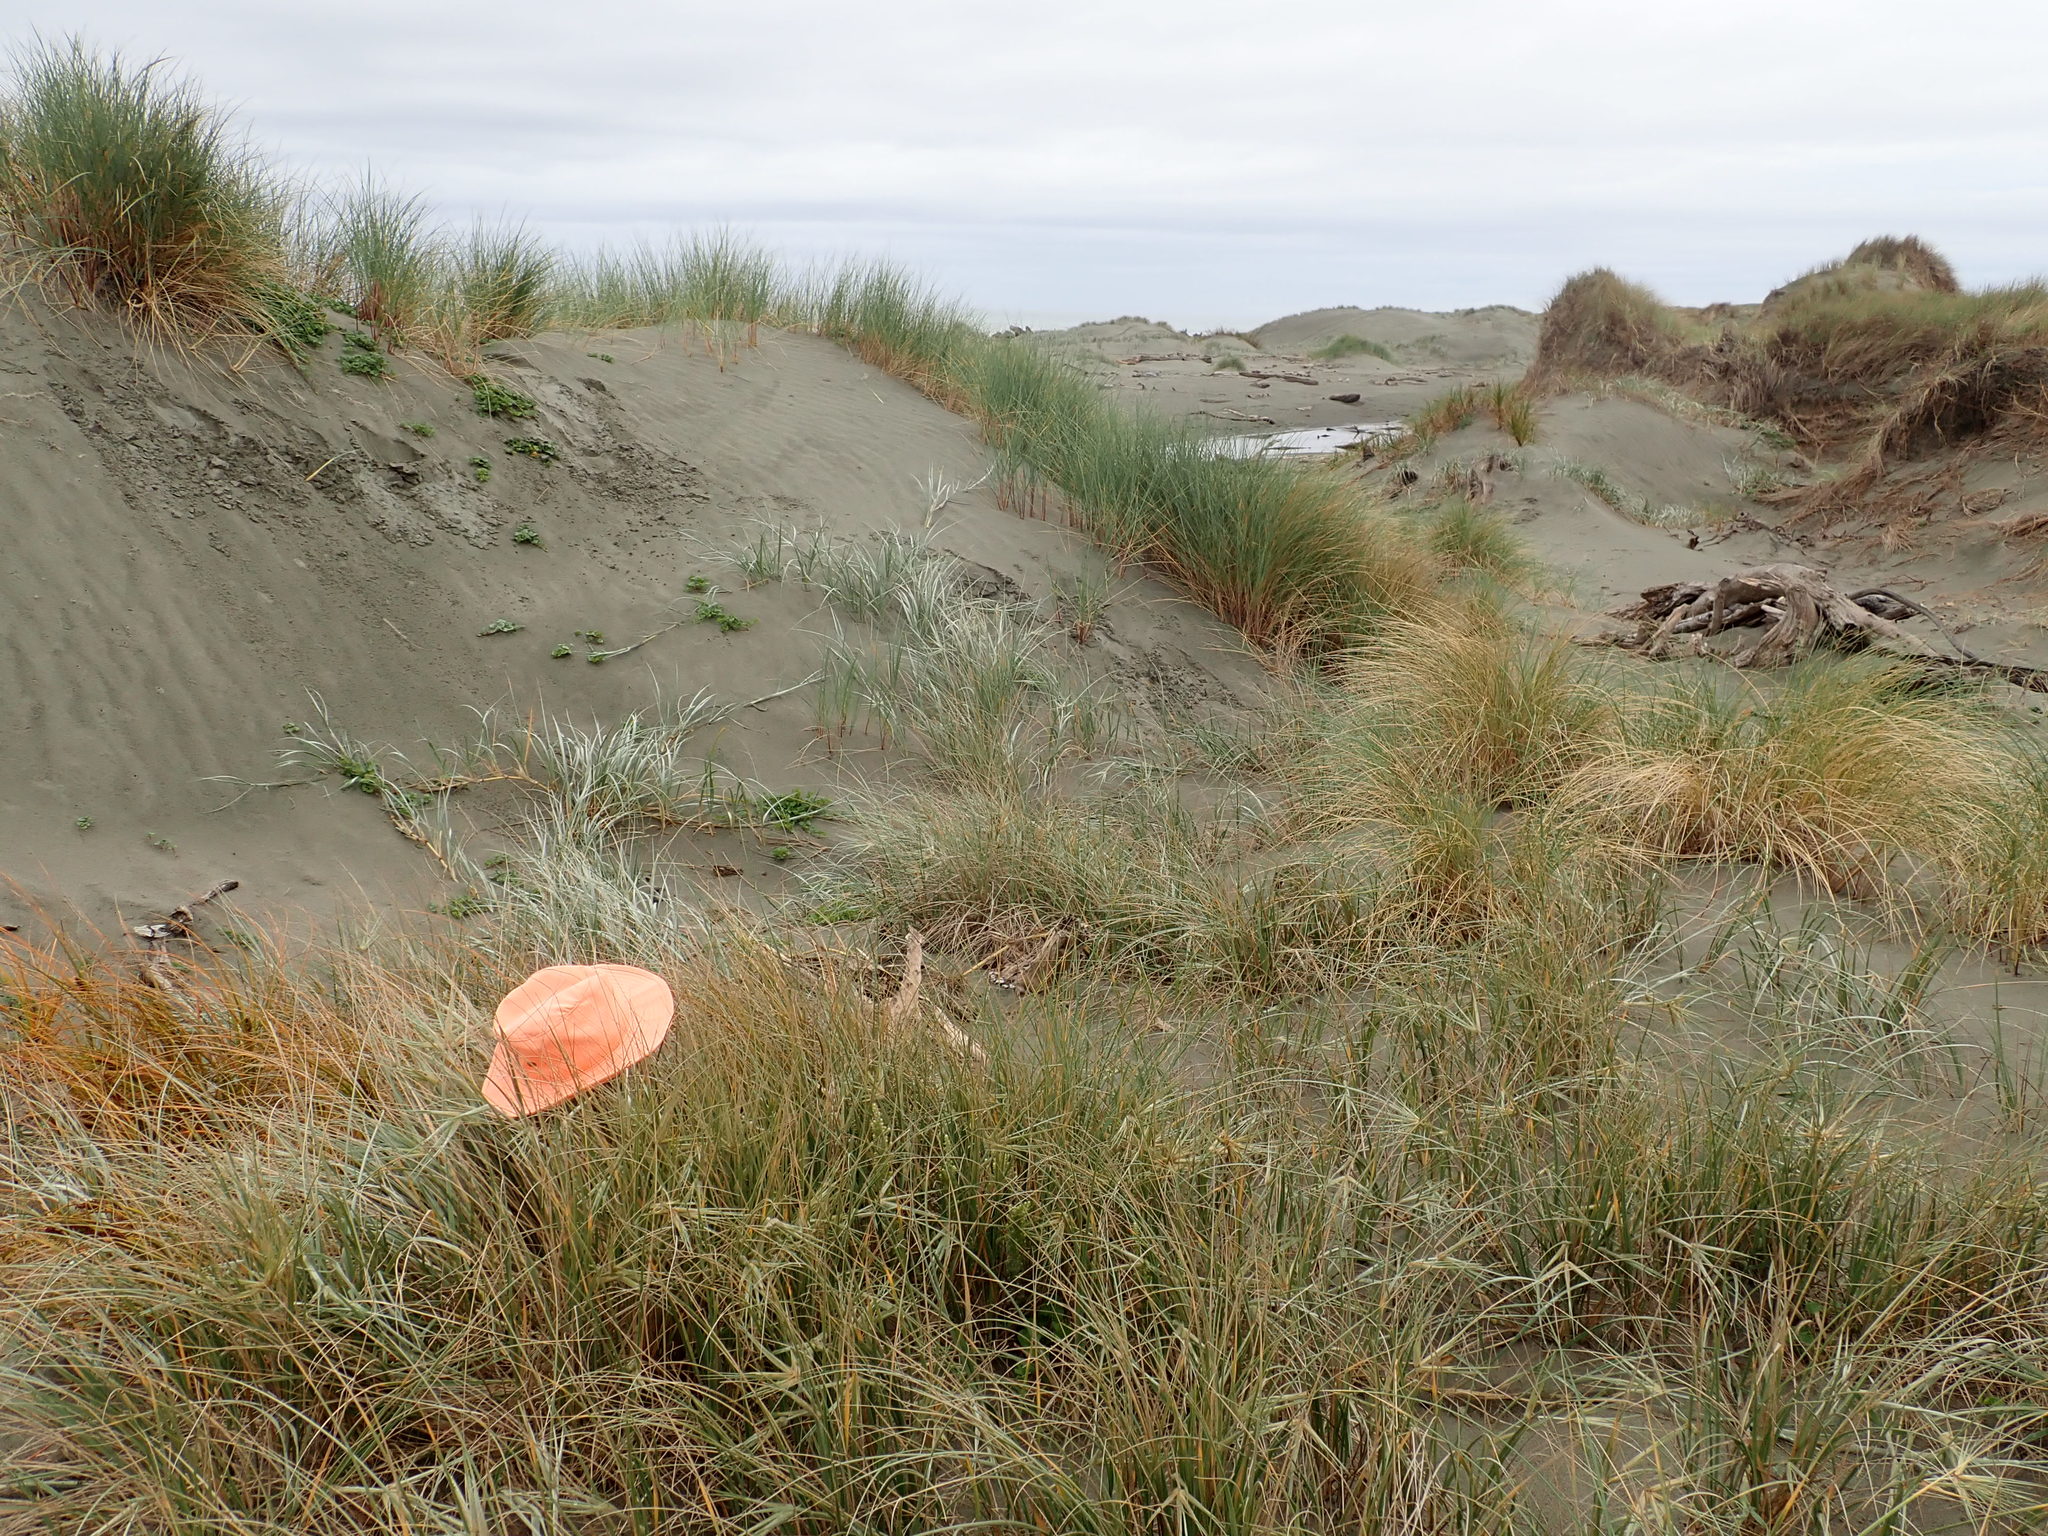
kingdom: Animalia
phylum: Arthropoda
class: Arachnida
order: Araneae
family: Theridiidae
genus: Steatoda
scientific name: Steatoda capensis
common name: Cobweb weaver
